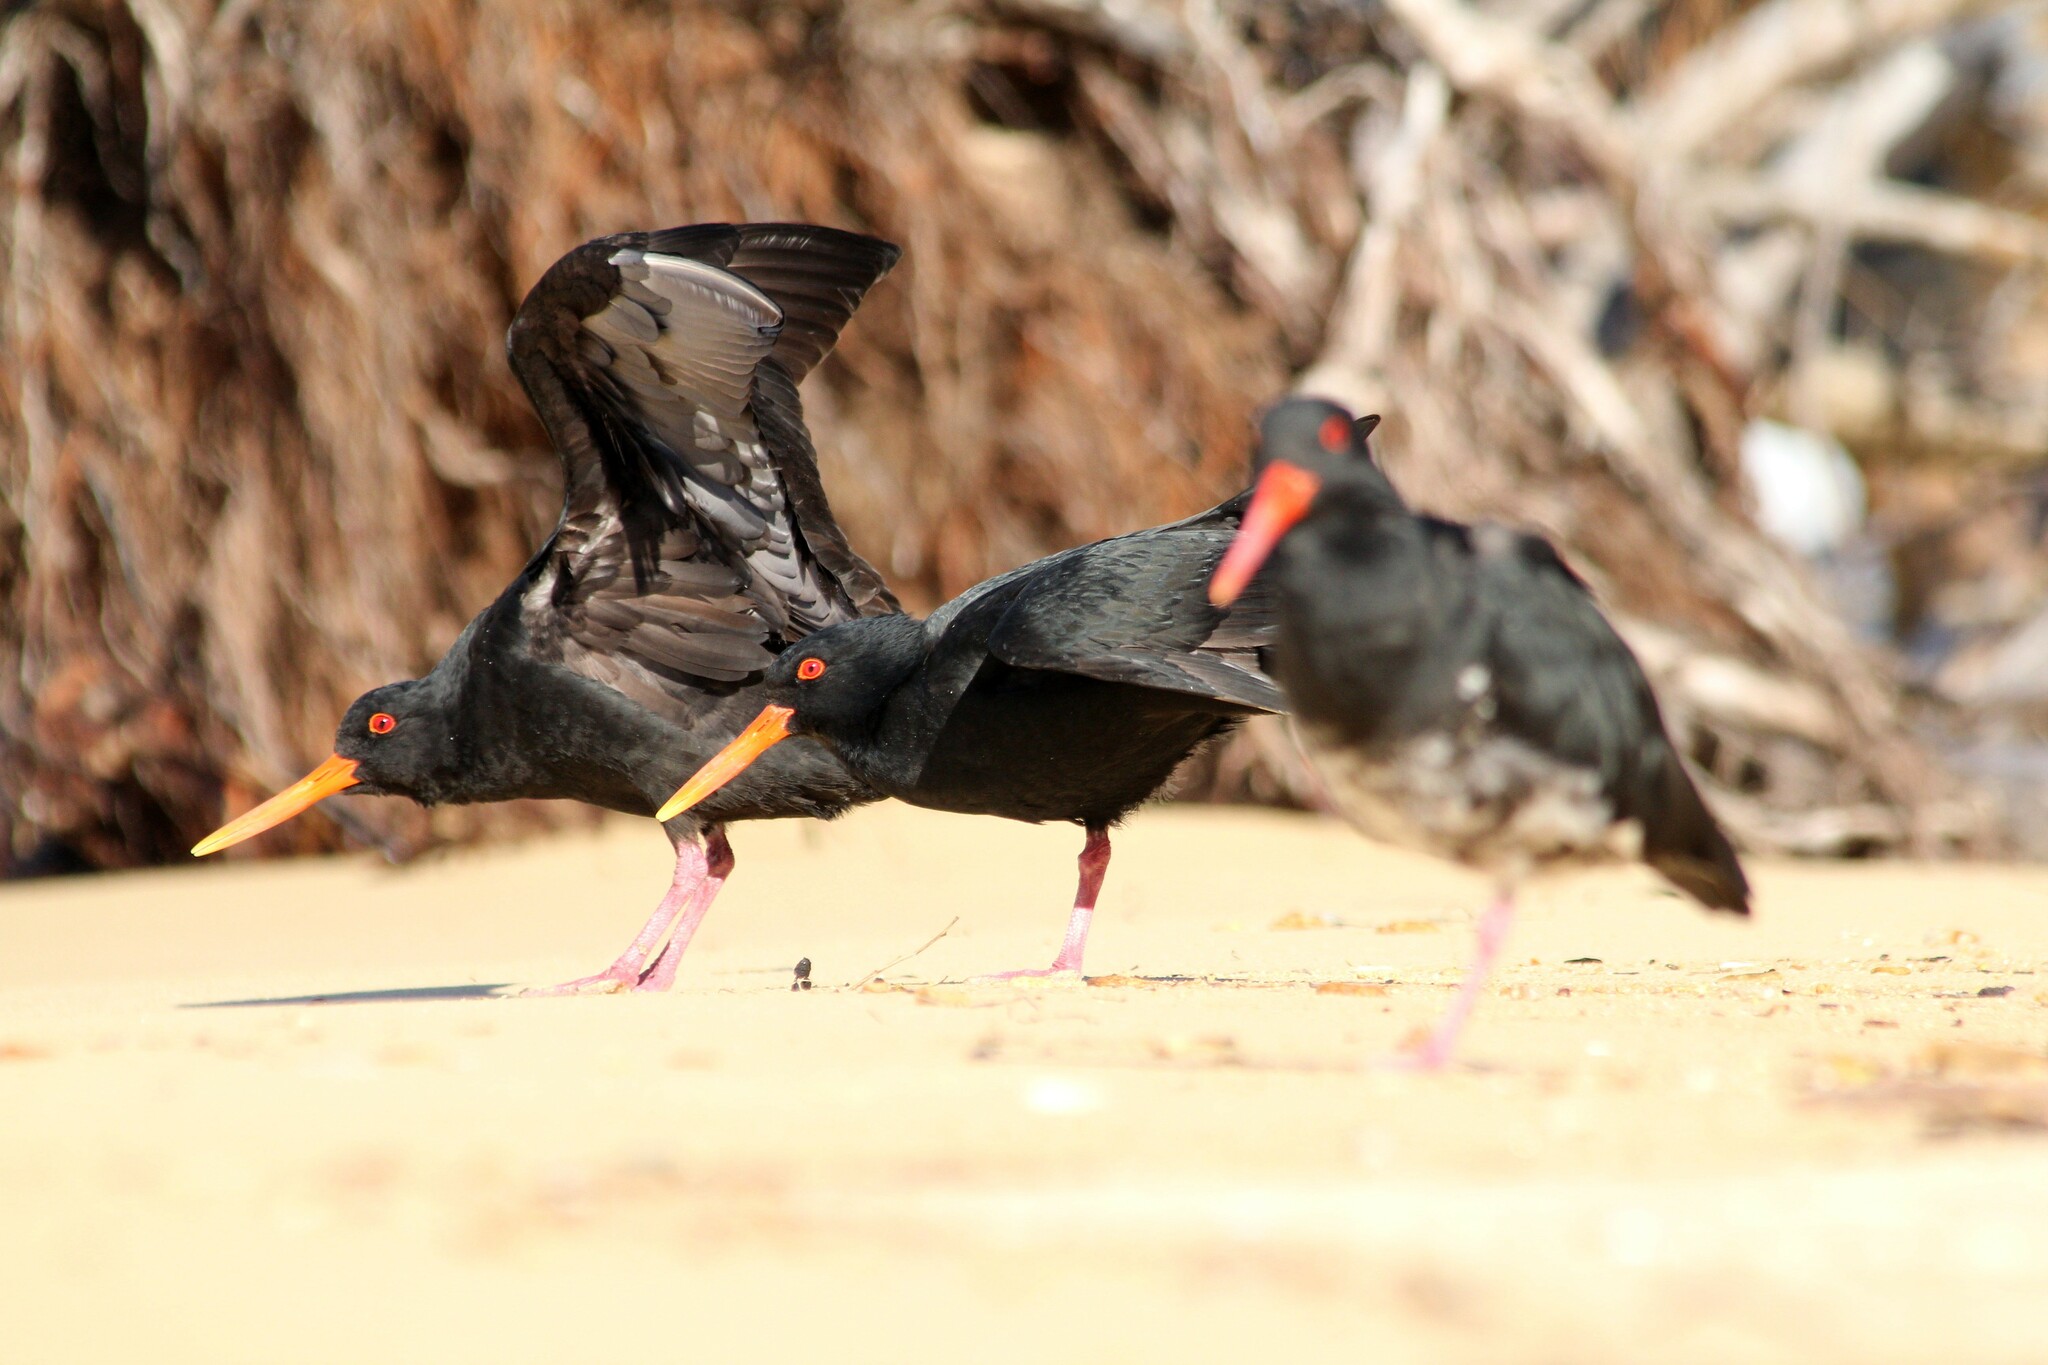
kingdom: Animalia
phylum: Chordata
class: Aves
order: Charadriiformes
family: Haematopodidae
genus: Haematopus
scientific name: Haematopus unicolor
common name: Variable oystercatcher
